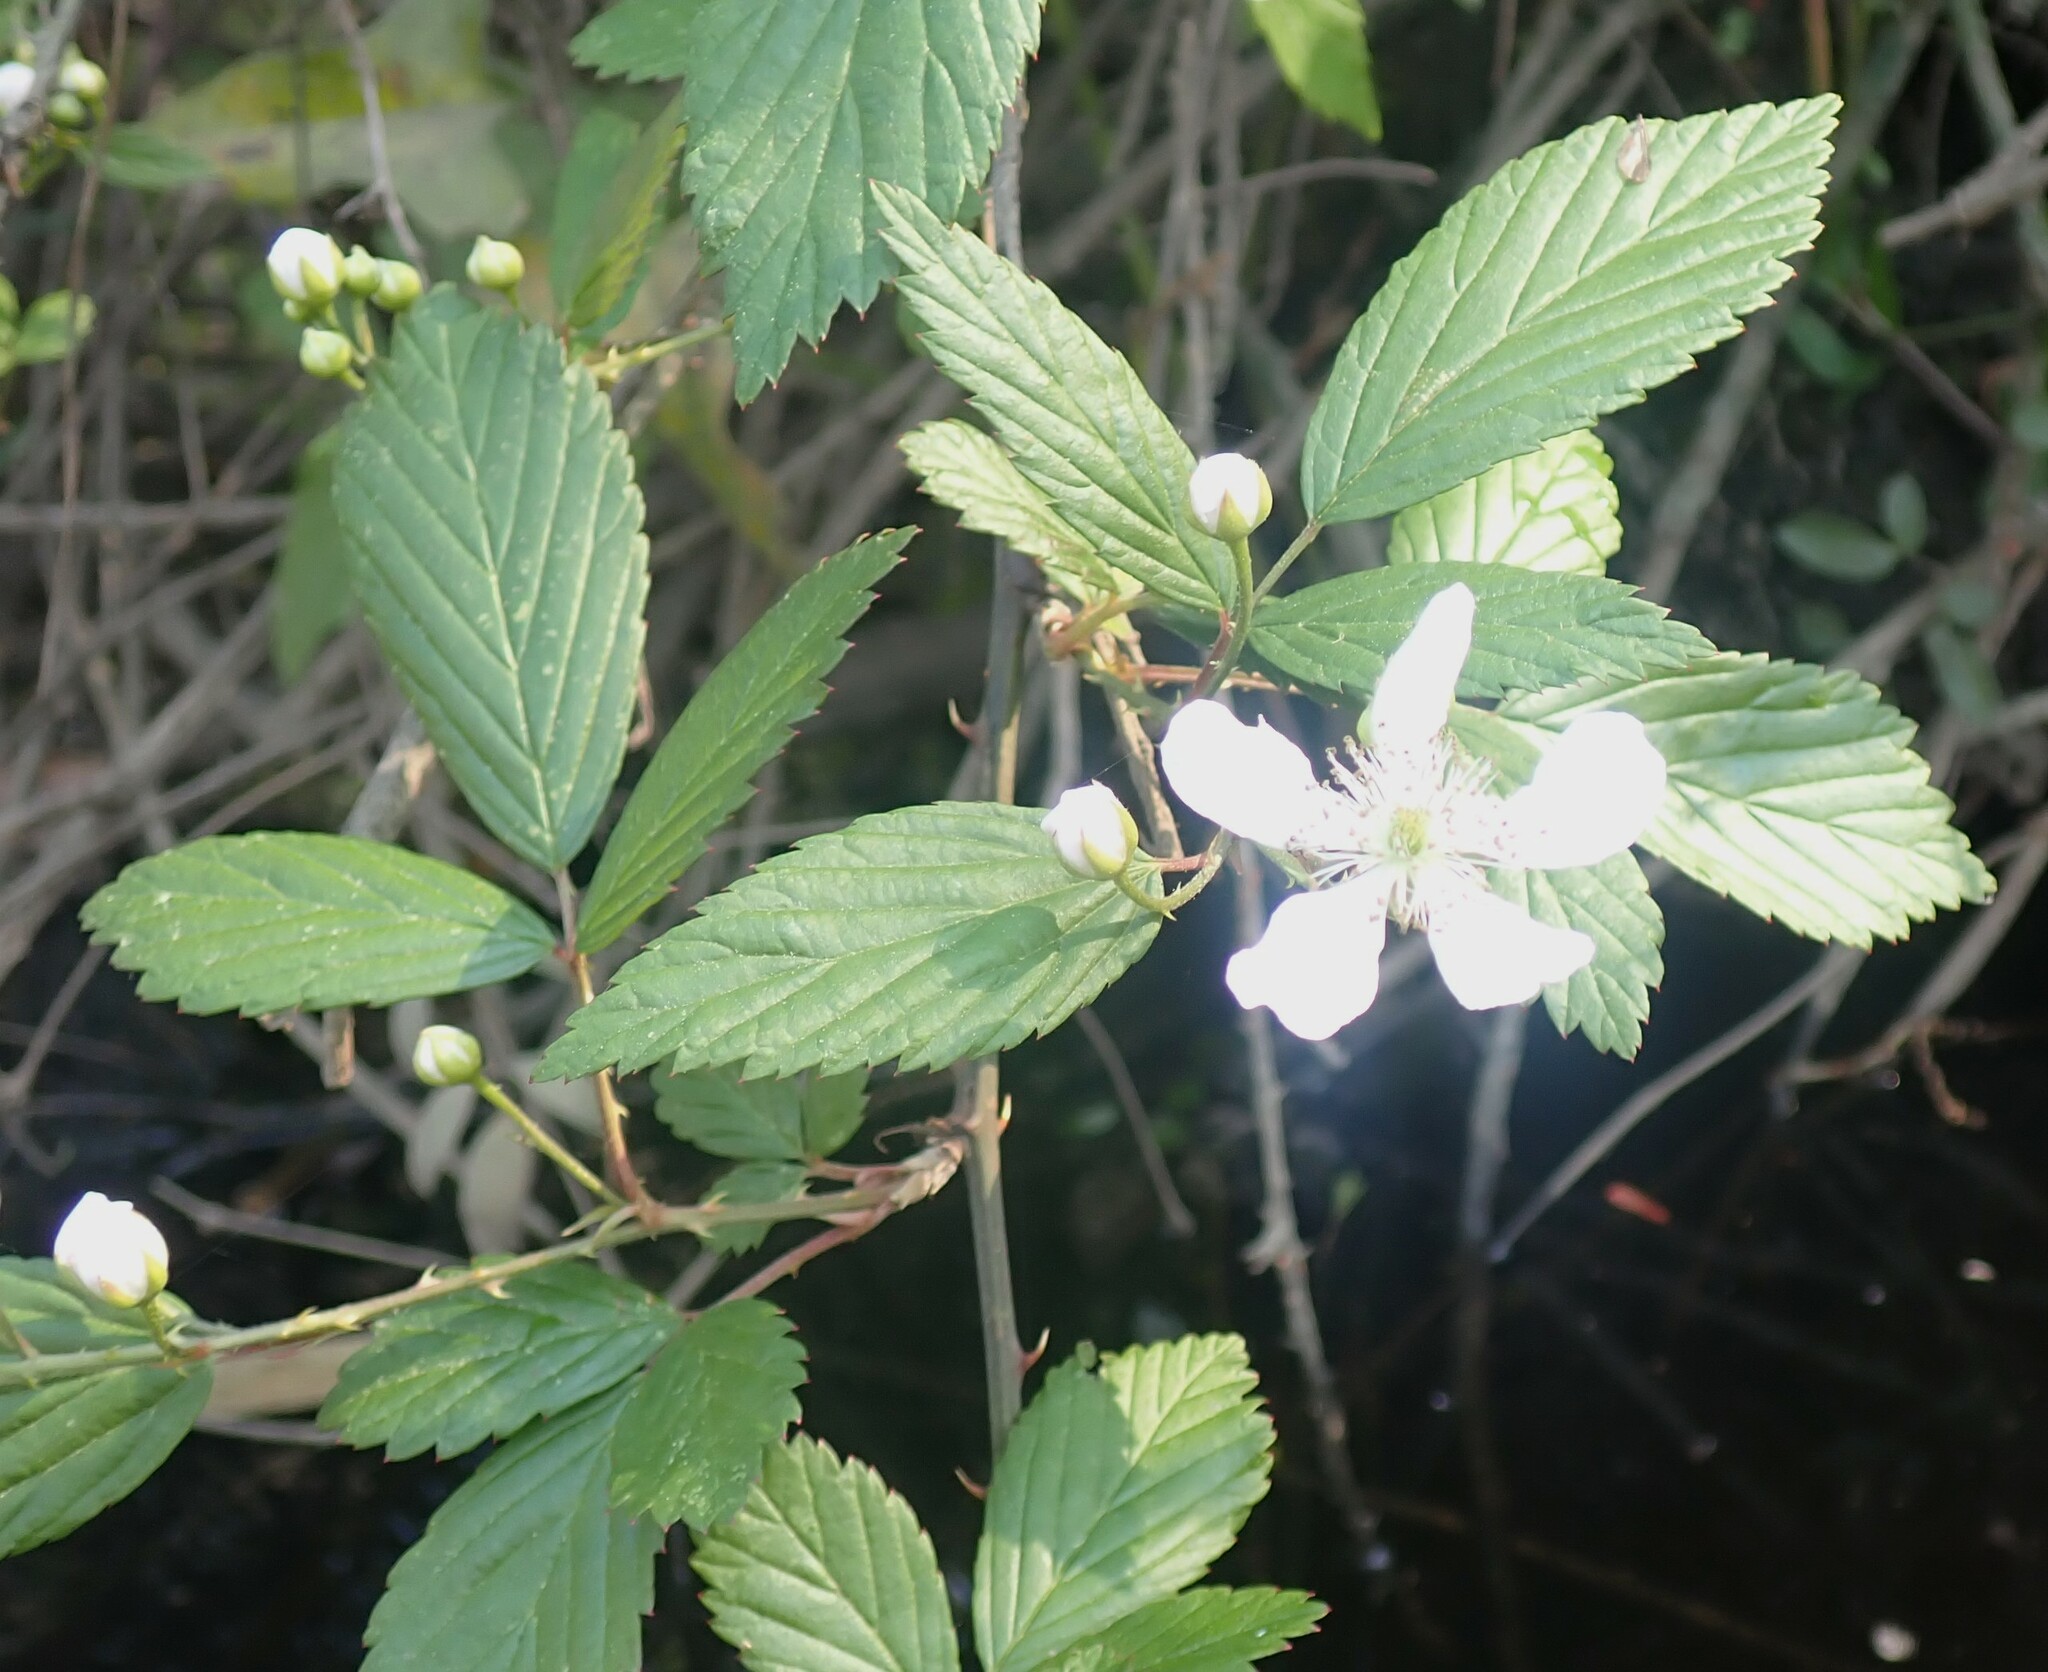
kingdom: Plantae
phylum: Tracheophyta
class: Magnoliopsida
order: Rosales
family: Rosaceae
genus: Rubus
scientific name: Rubus pensilvanicus
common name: Pennsylvania blackberry
